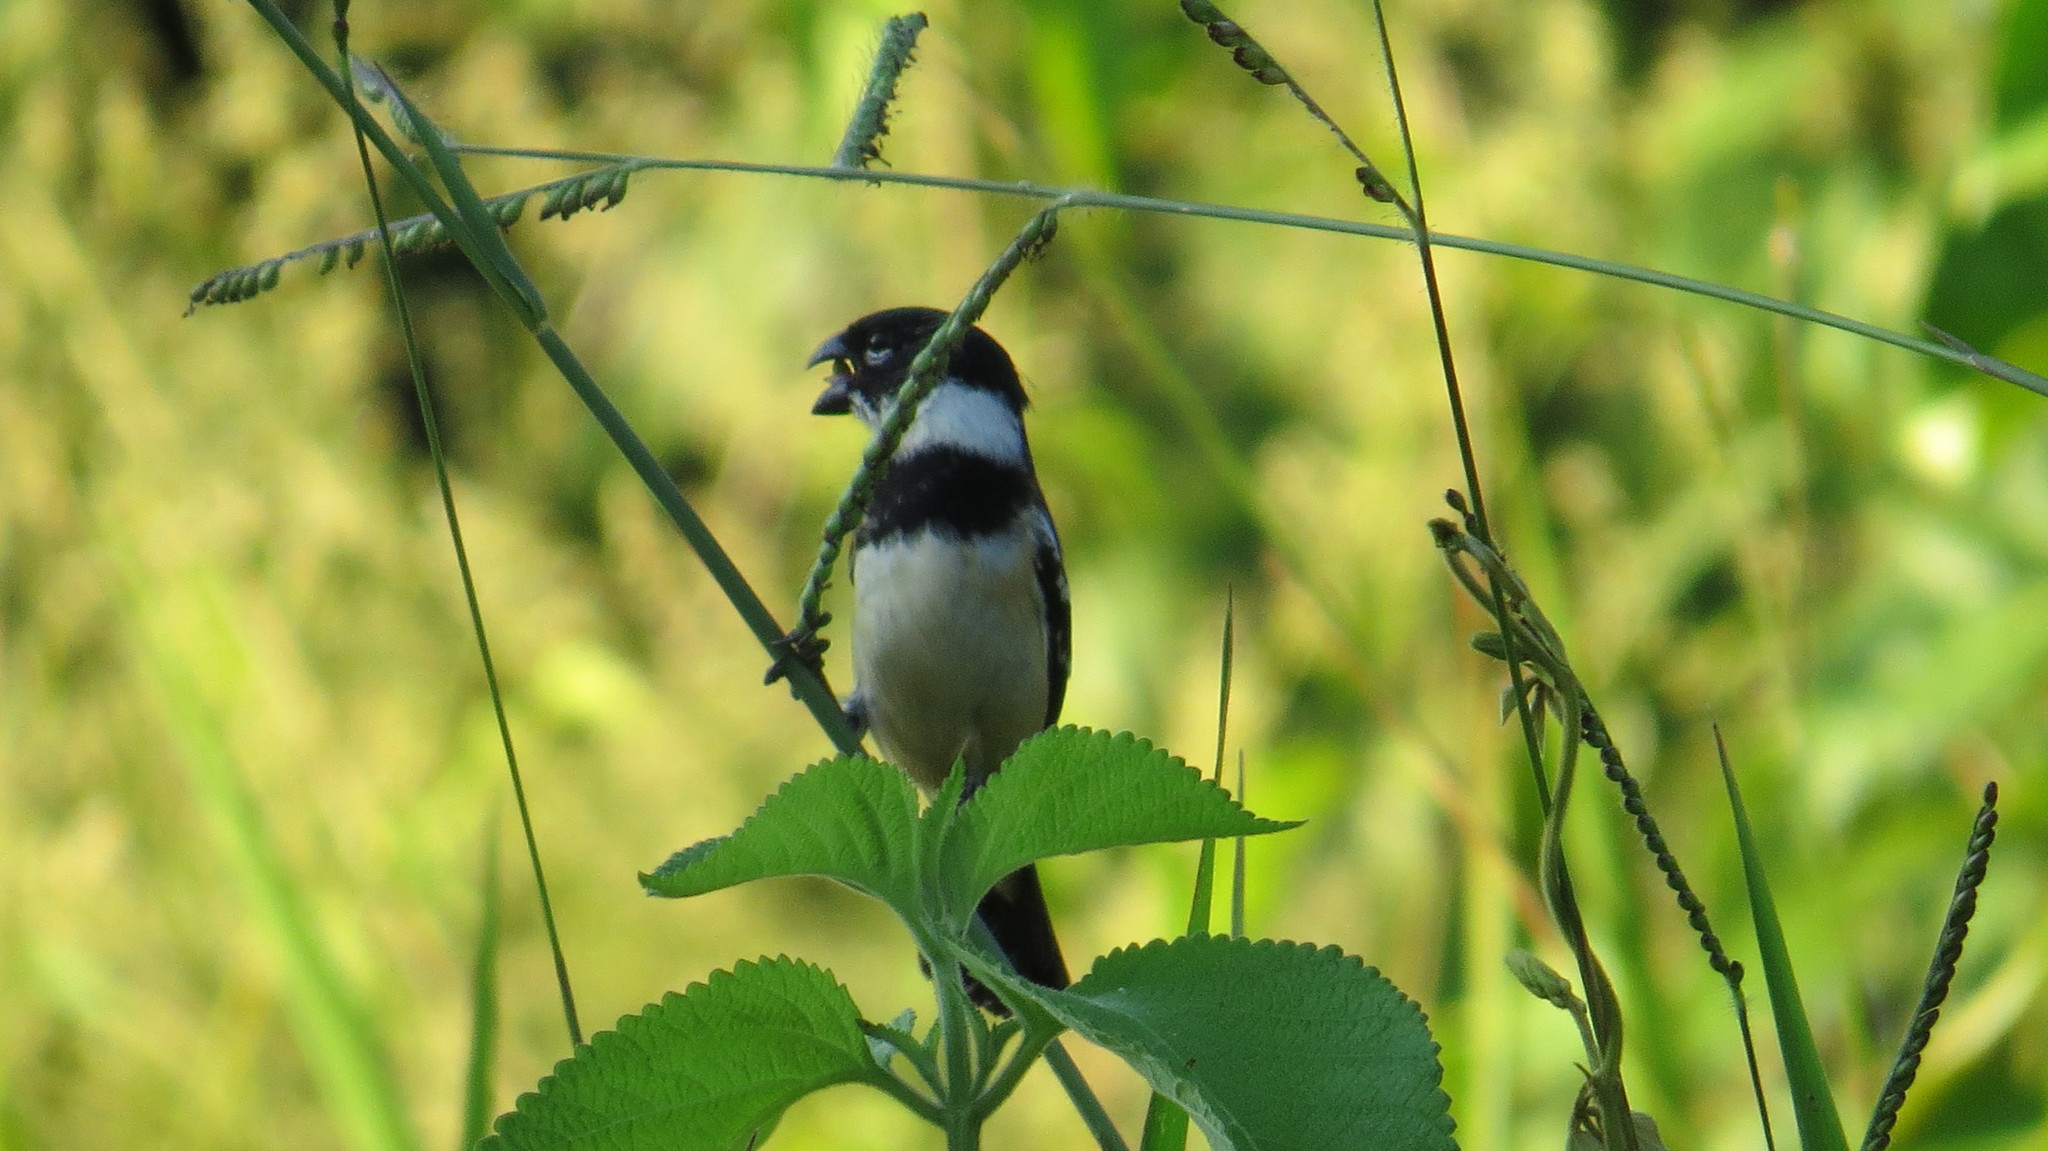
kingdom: Animalia
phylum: Chordata
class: Aves
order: Passeriformes
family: Thraupidae
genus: Sporophila
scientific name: Sporophila morelleti
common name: Morelet's seedeater
